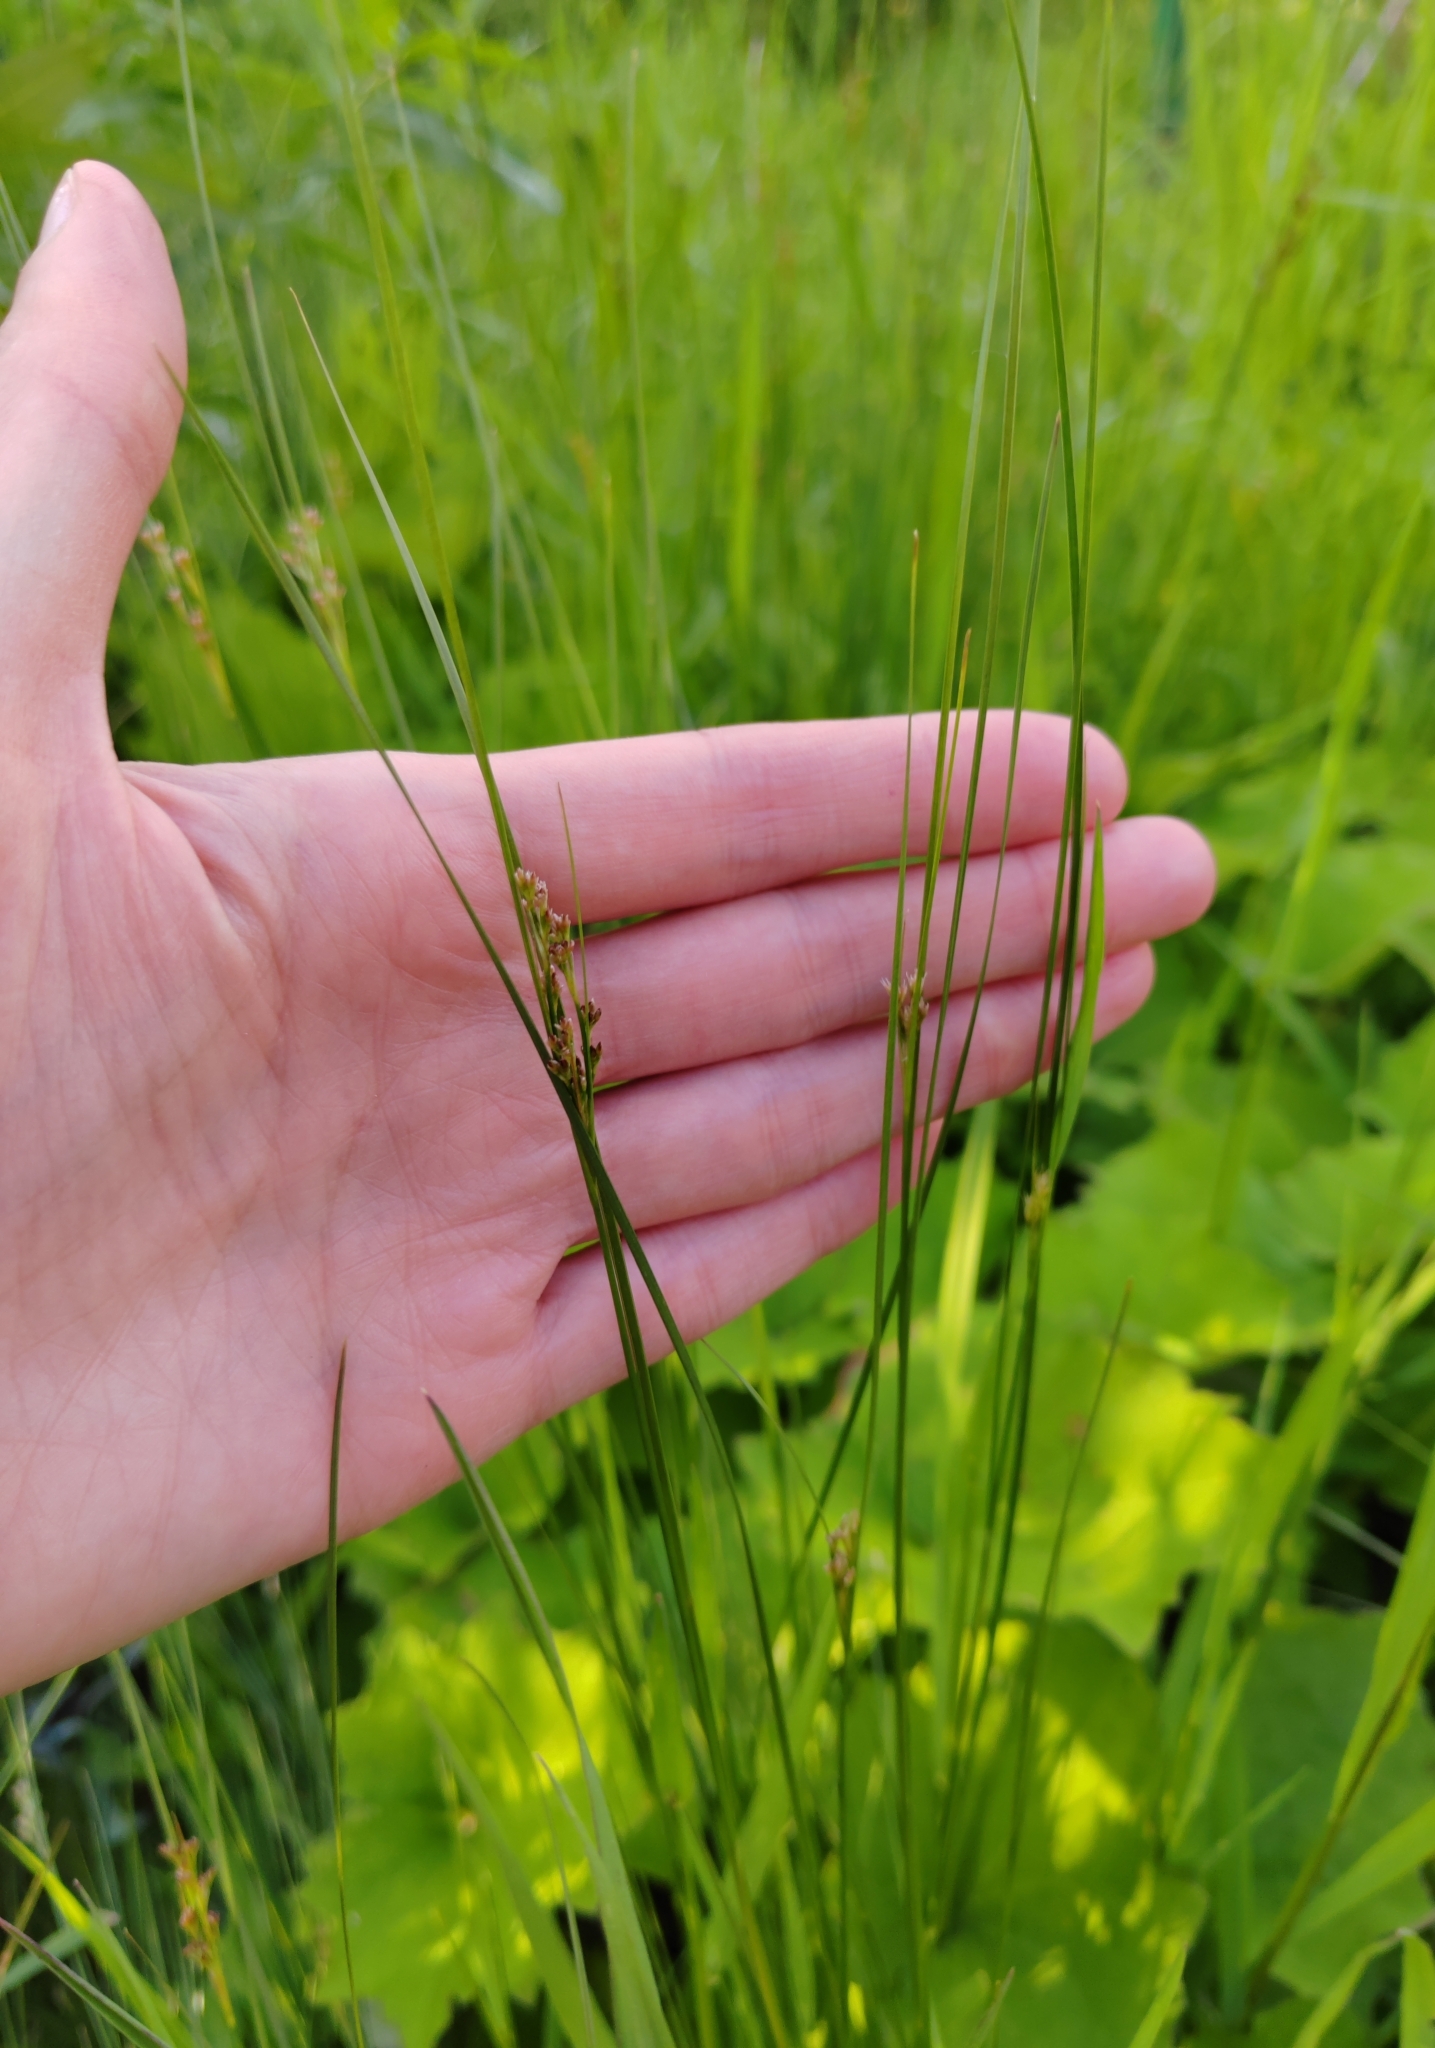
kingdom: Plantae
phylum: Tracheophyta
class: Liliopsida
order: Poales
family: Juncaceae
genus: Juncus
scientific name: Juncus compressus
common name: Round-fruited rush
